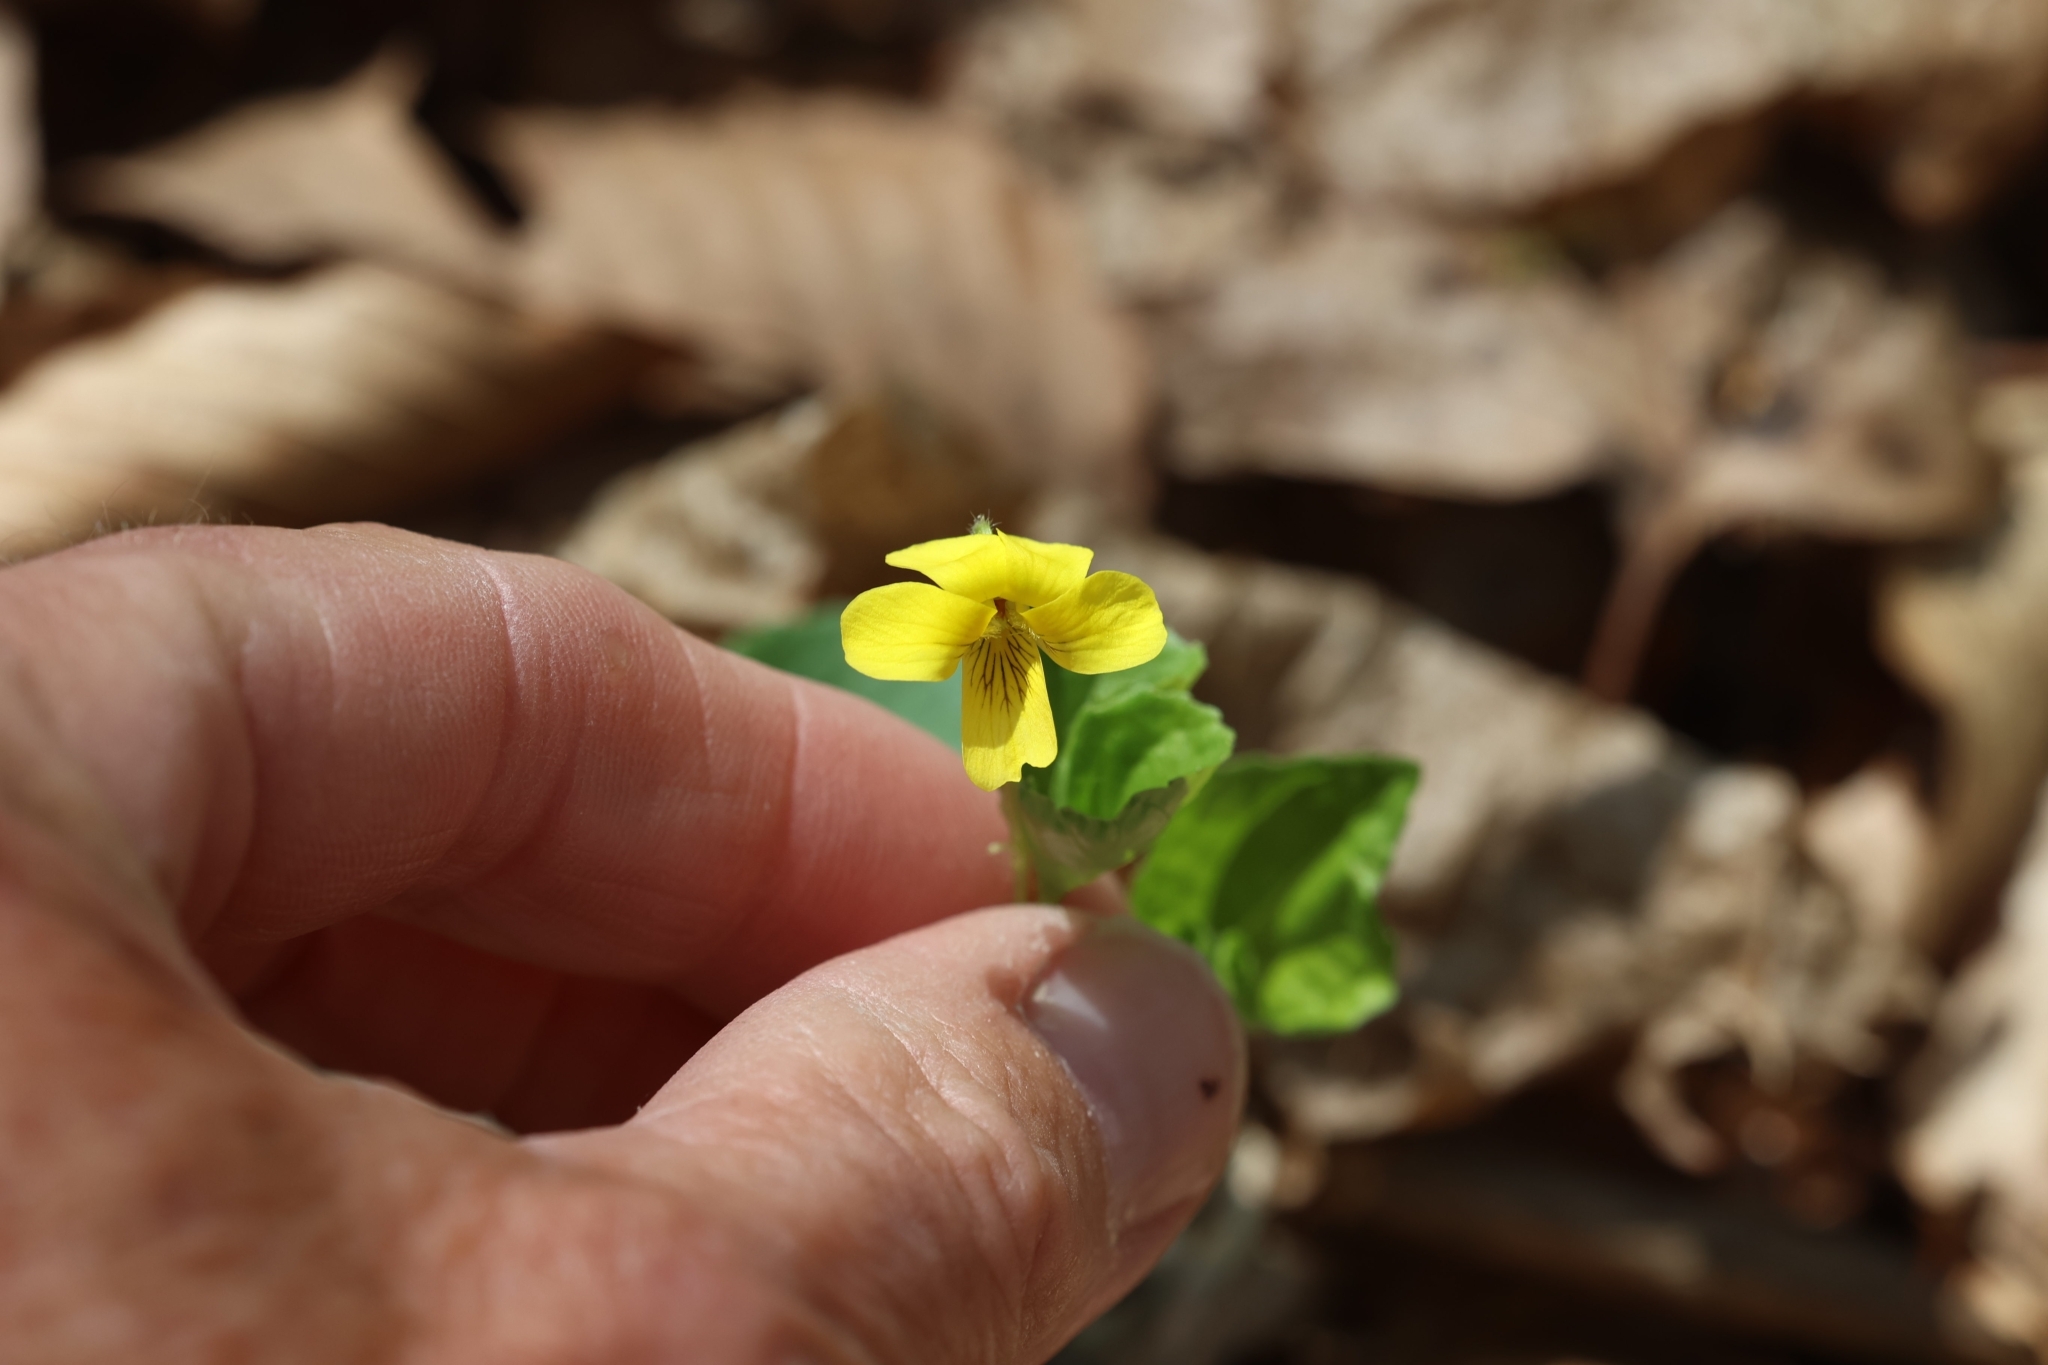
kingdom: Plantae
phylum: Tracheophyta
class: Magnoliopsida
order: Malpighiales
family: Violaceae
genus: Viola
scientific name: Viola eriocarpa
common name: Smooth yellow violet
